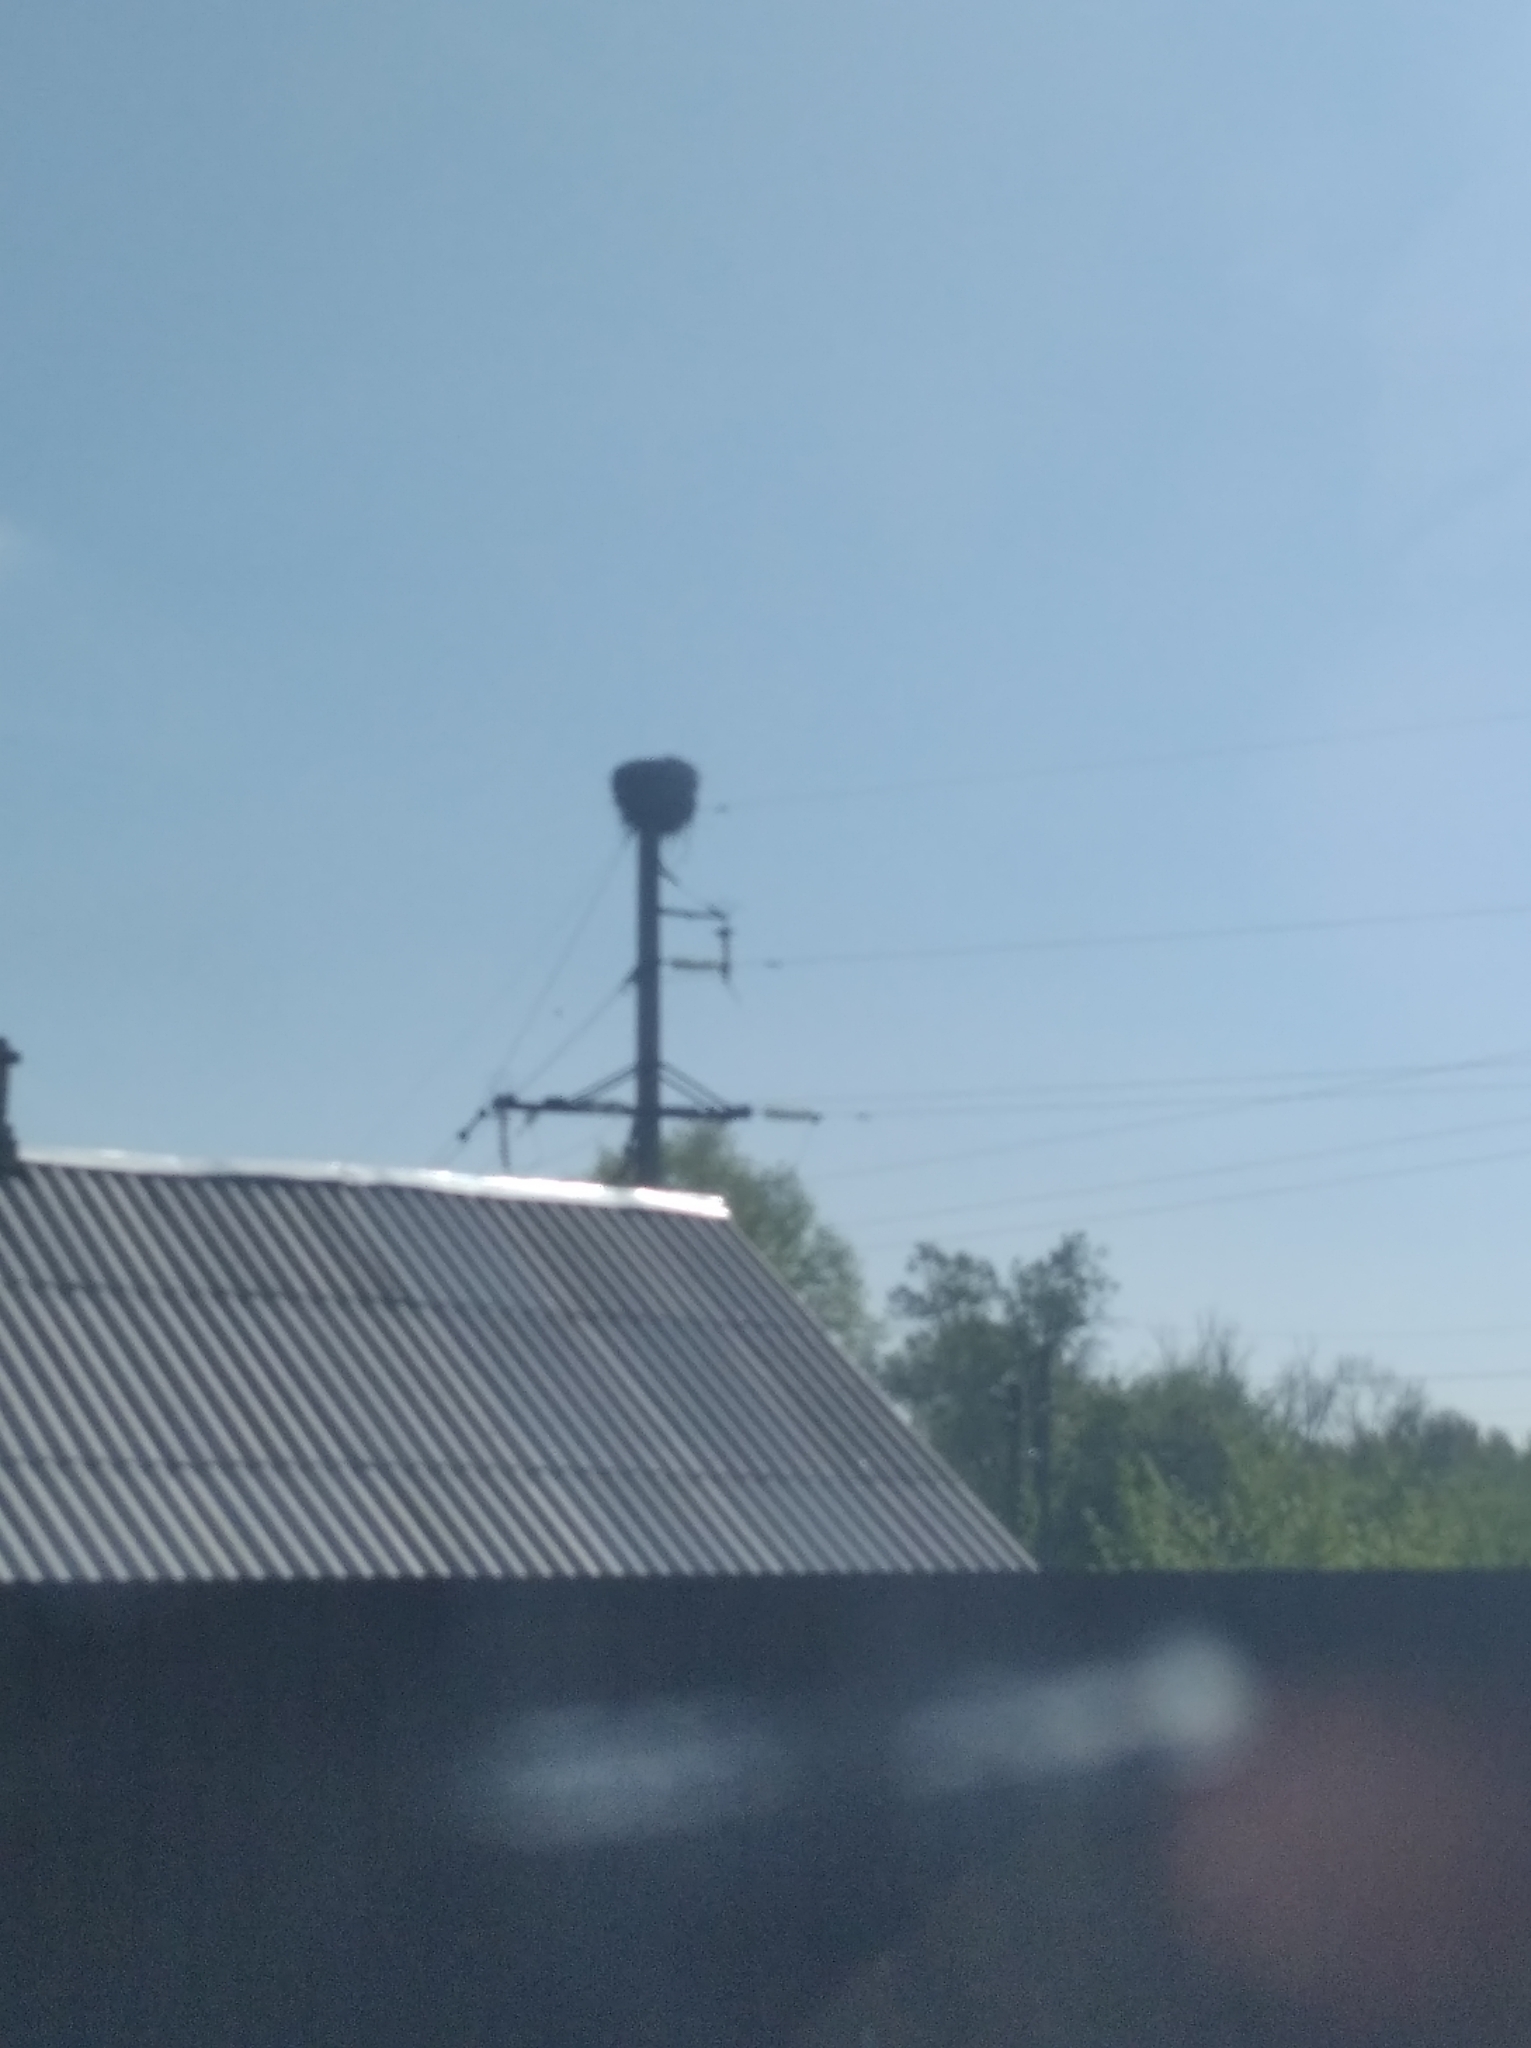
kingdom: Animalia
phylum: Chordata
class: Aves
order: Ciconiiformes
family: Ciconiidae
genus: Ciconia
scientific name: Ciconia ciconia
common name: White stork
